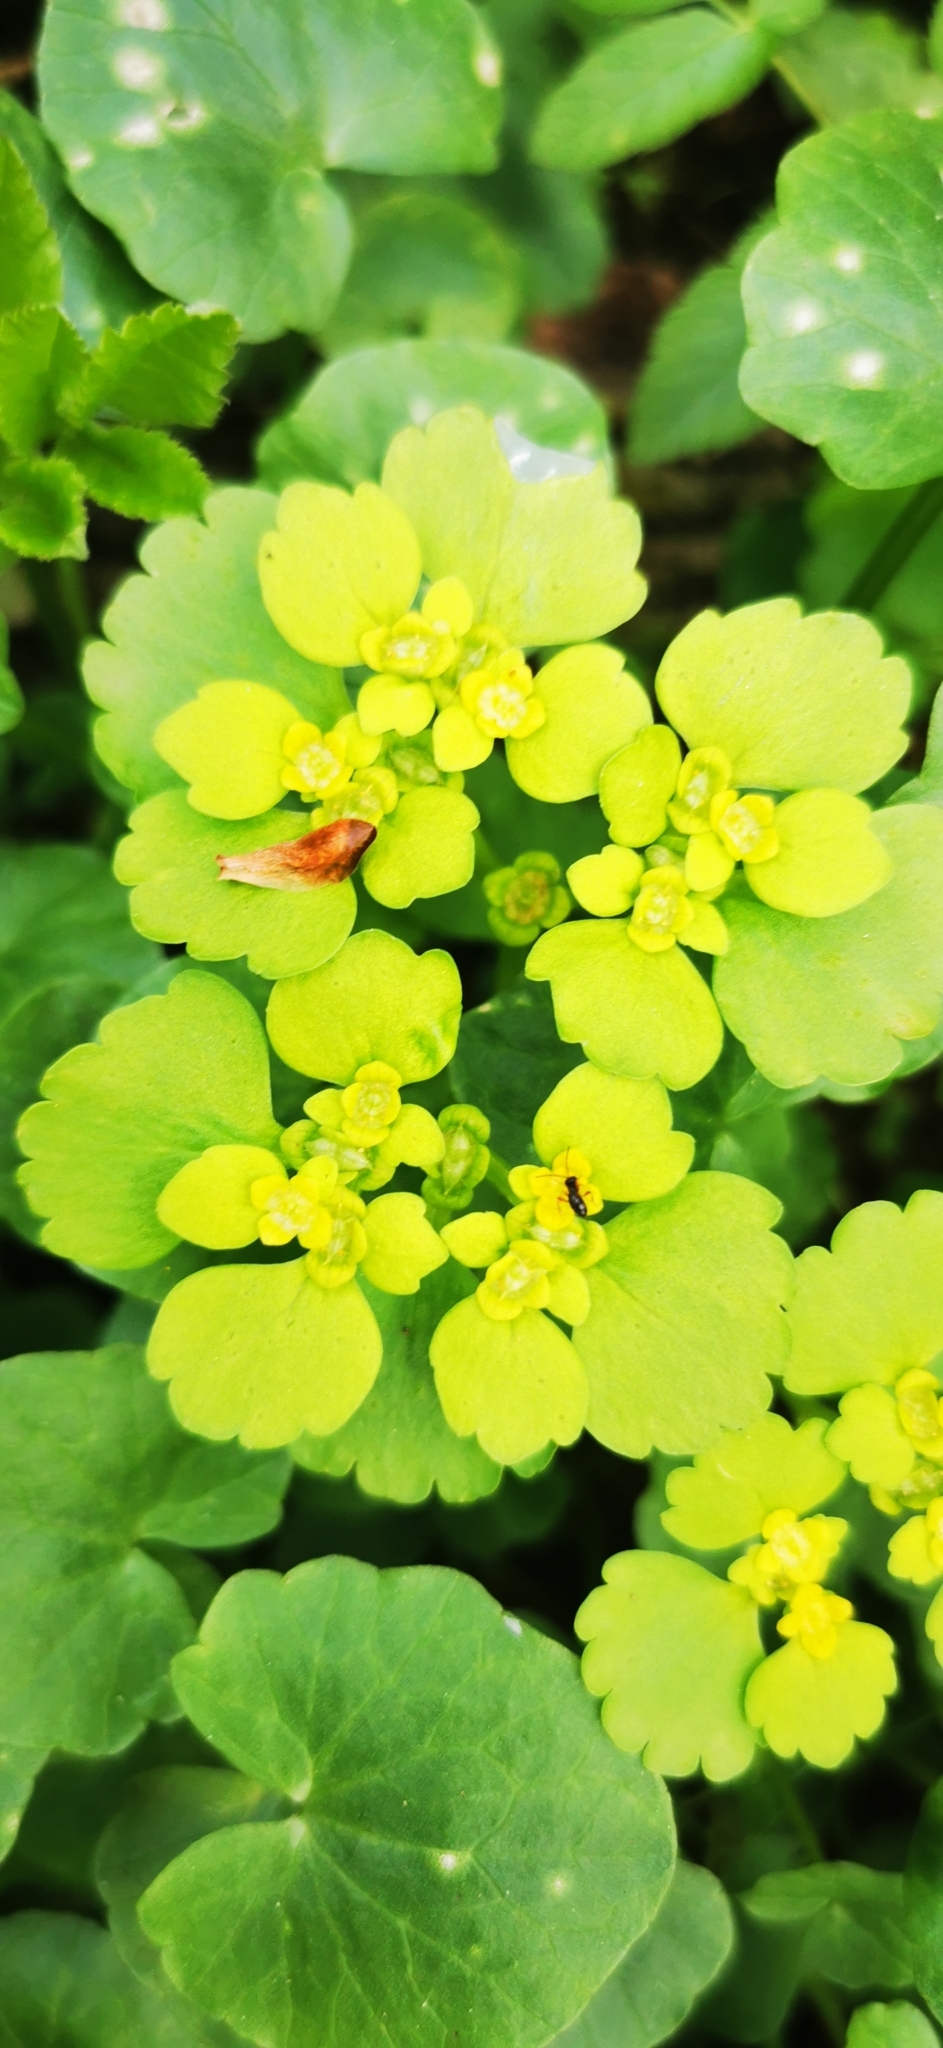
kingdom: Plantae
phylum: Tracheophyta
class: Magnoliopsida
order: Saxifragales
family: Saxifragaceae
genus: Chrysosplenium
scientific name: Chrysosplenium alternifolium
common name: Alternate-leaved golden-saxifrage
